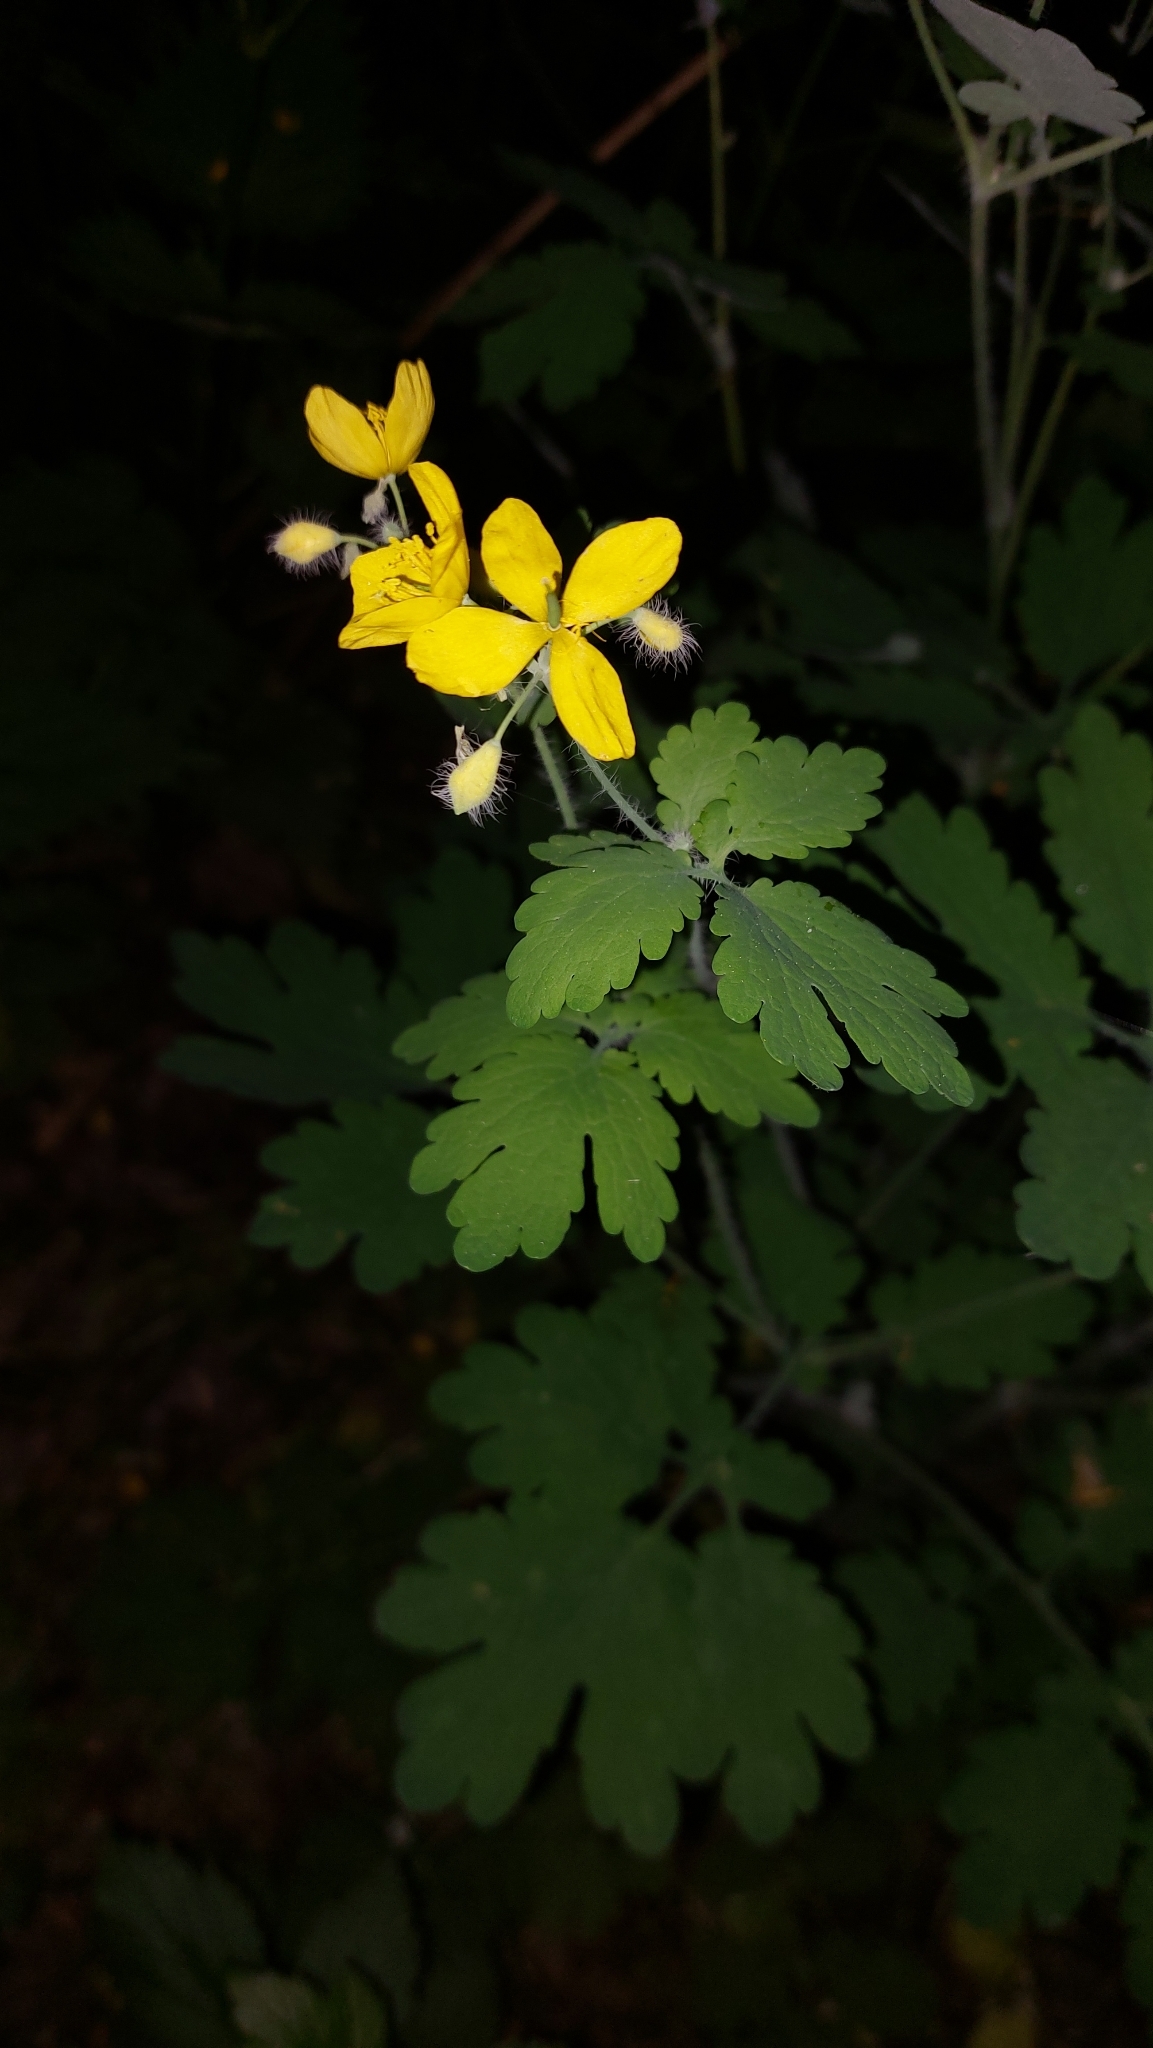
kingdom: Plantae
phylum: Tracheophyta
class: Magnoliopsida
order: Ranunculales
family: Papaveraceae
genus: Chelidonium
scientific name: Chelidonium majus
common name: Greater celandine
